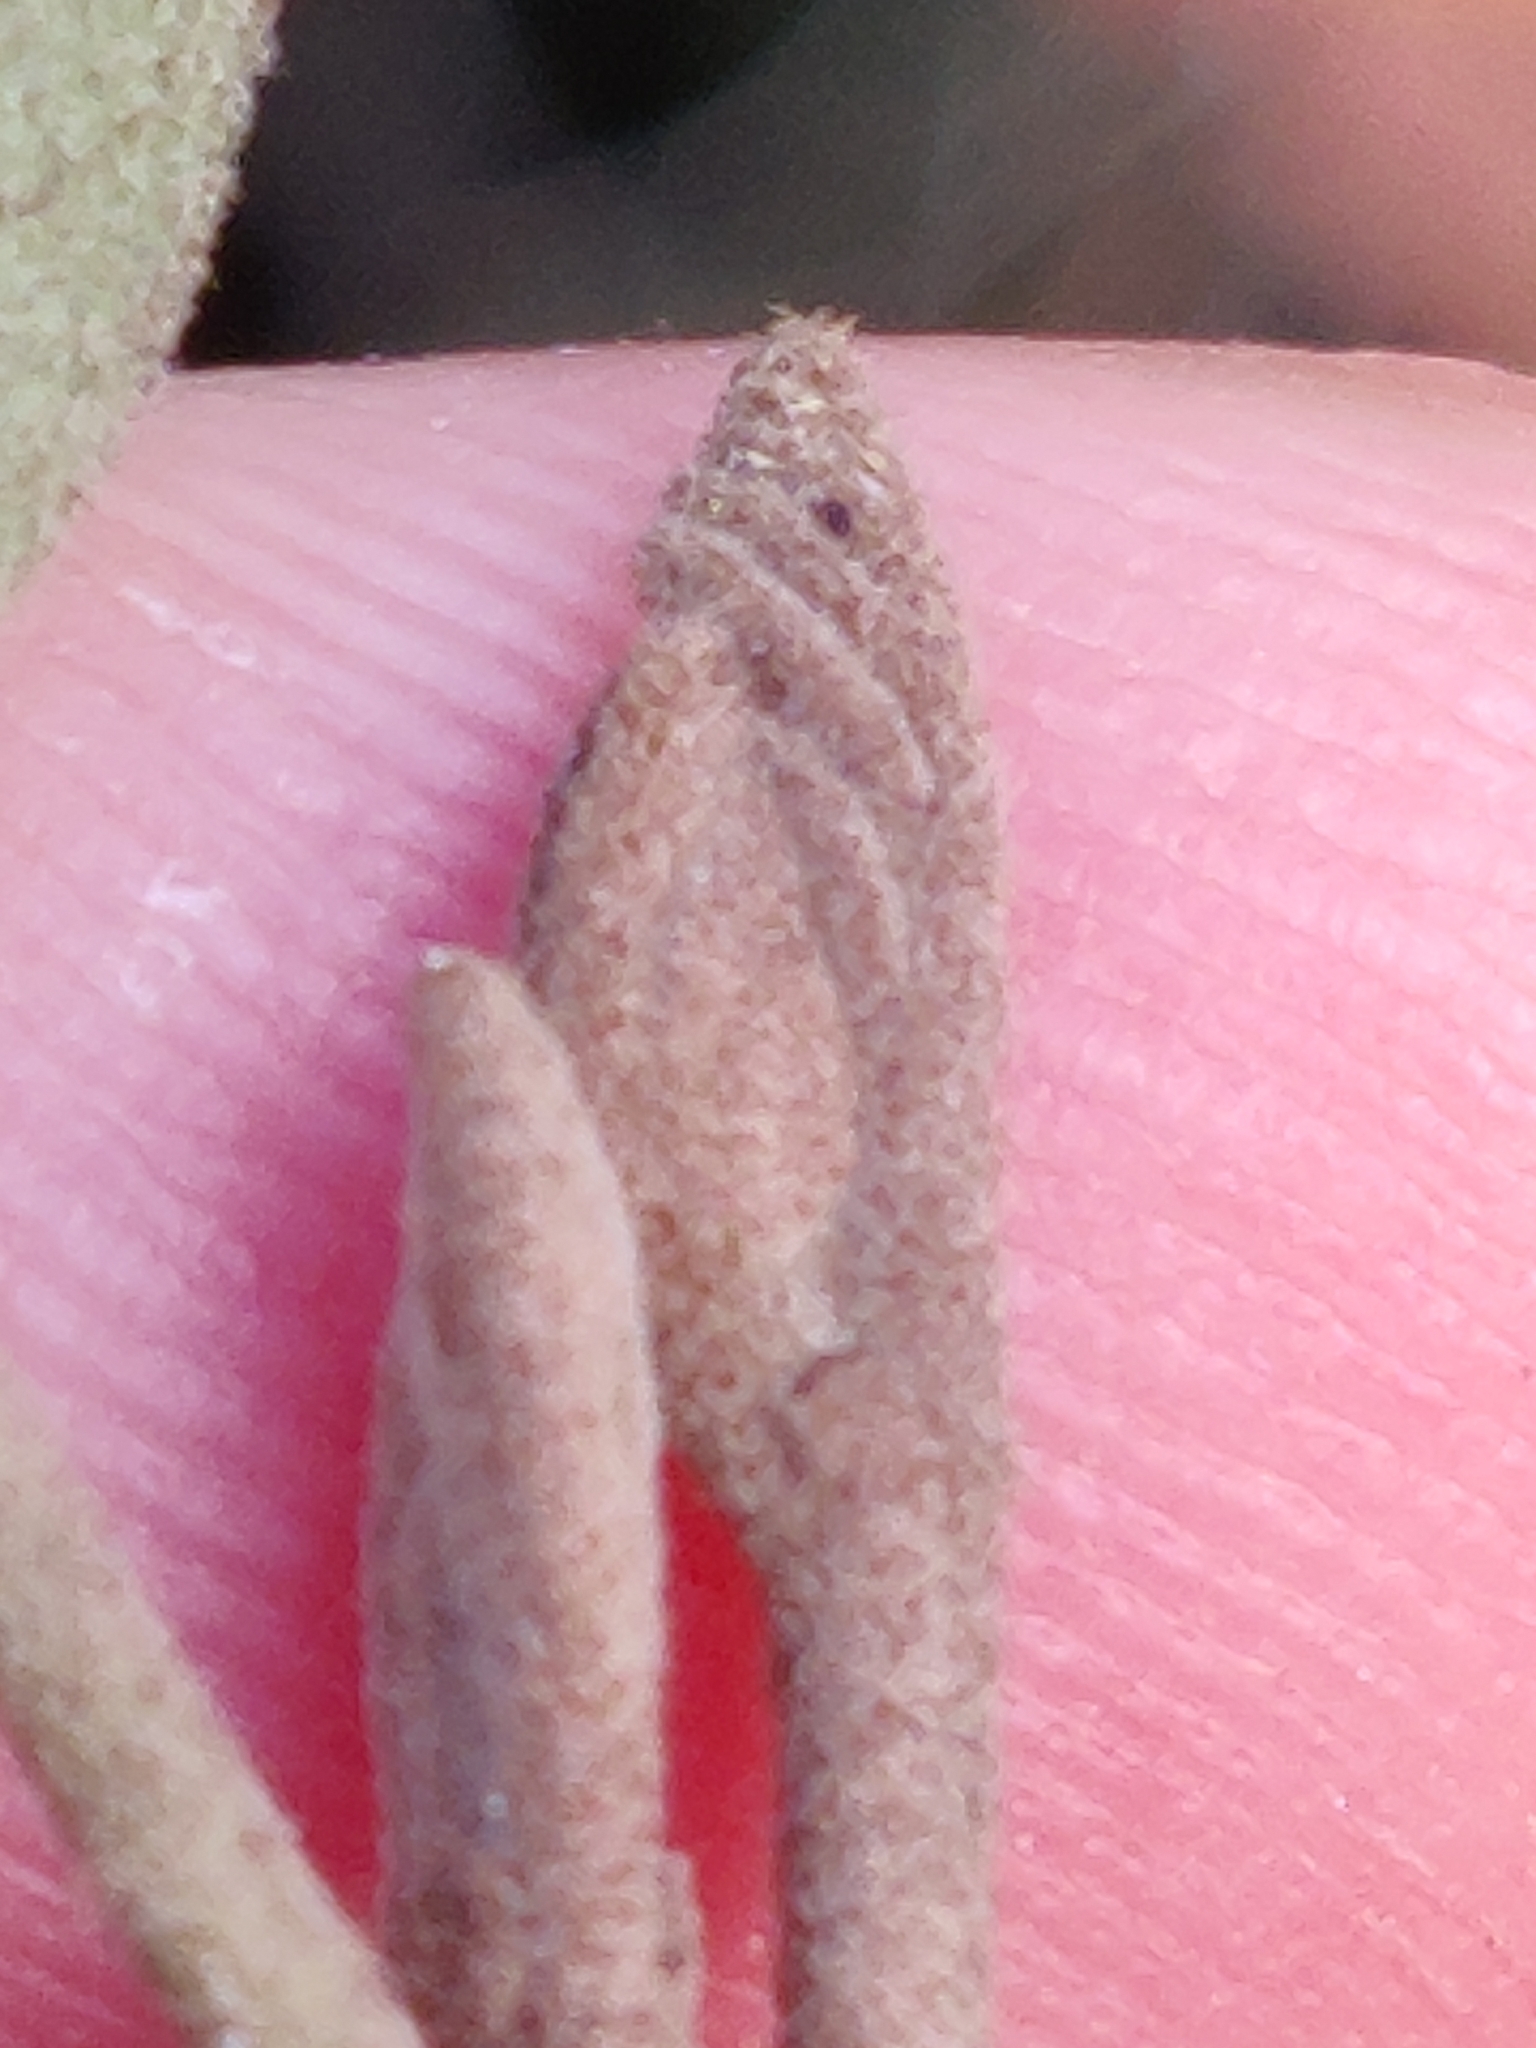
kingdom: Animalia
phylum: Arthropoda
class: Insecta
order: Hemiptera
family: Aphididae
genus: Hormaphis
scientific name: Hormaphis hamamelidis
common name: Witch-hazel cone gall aphid
